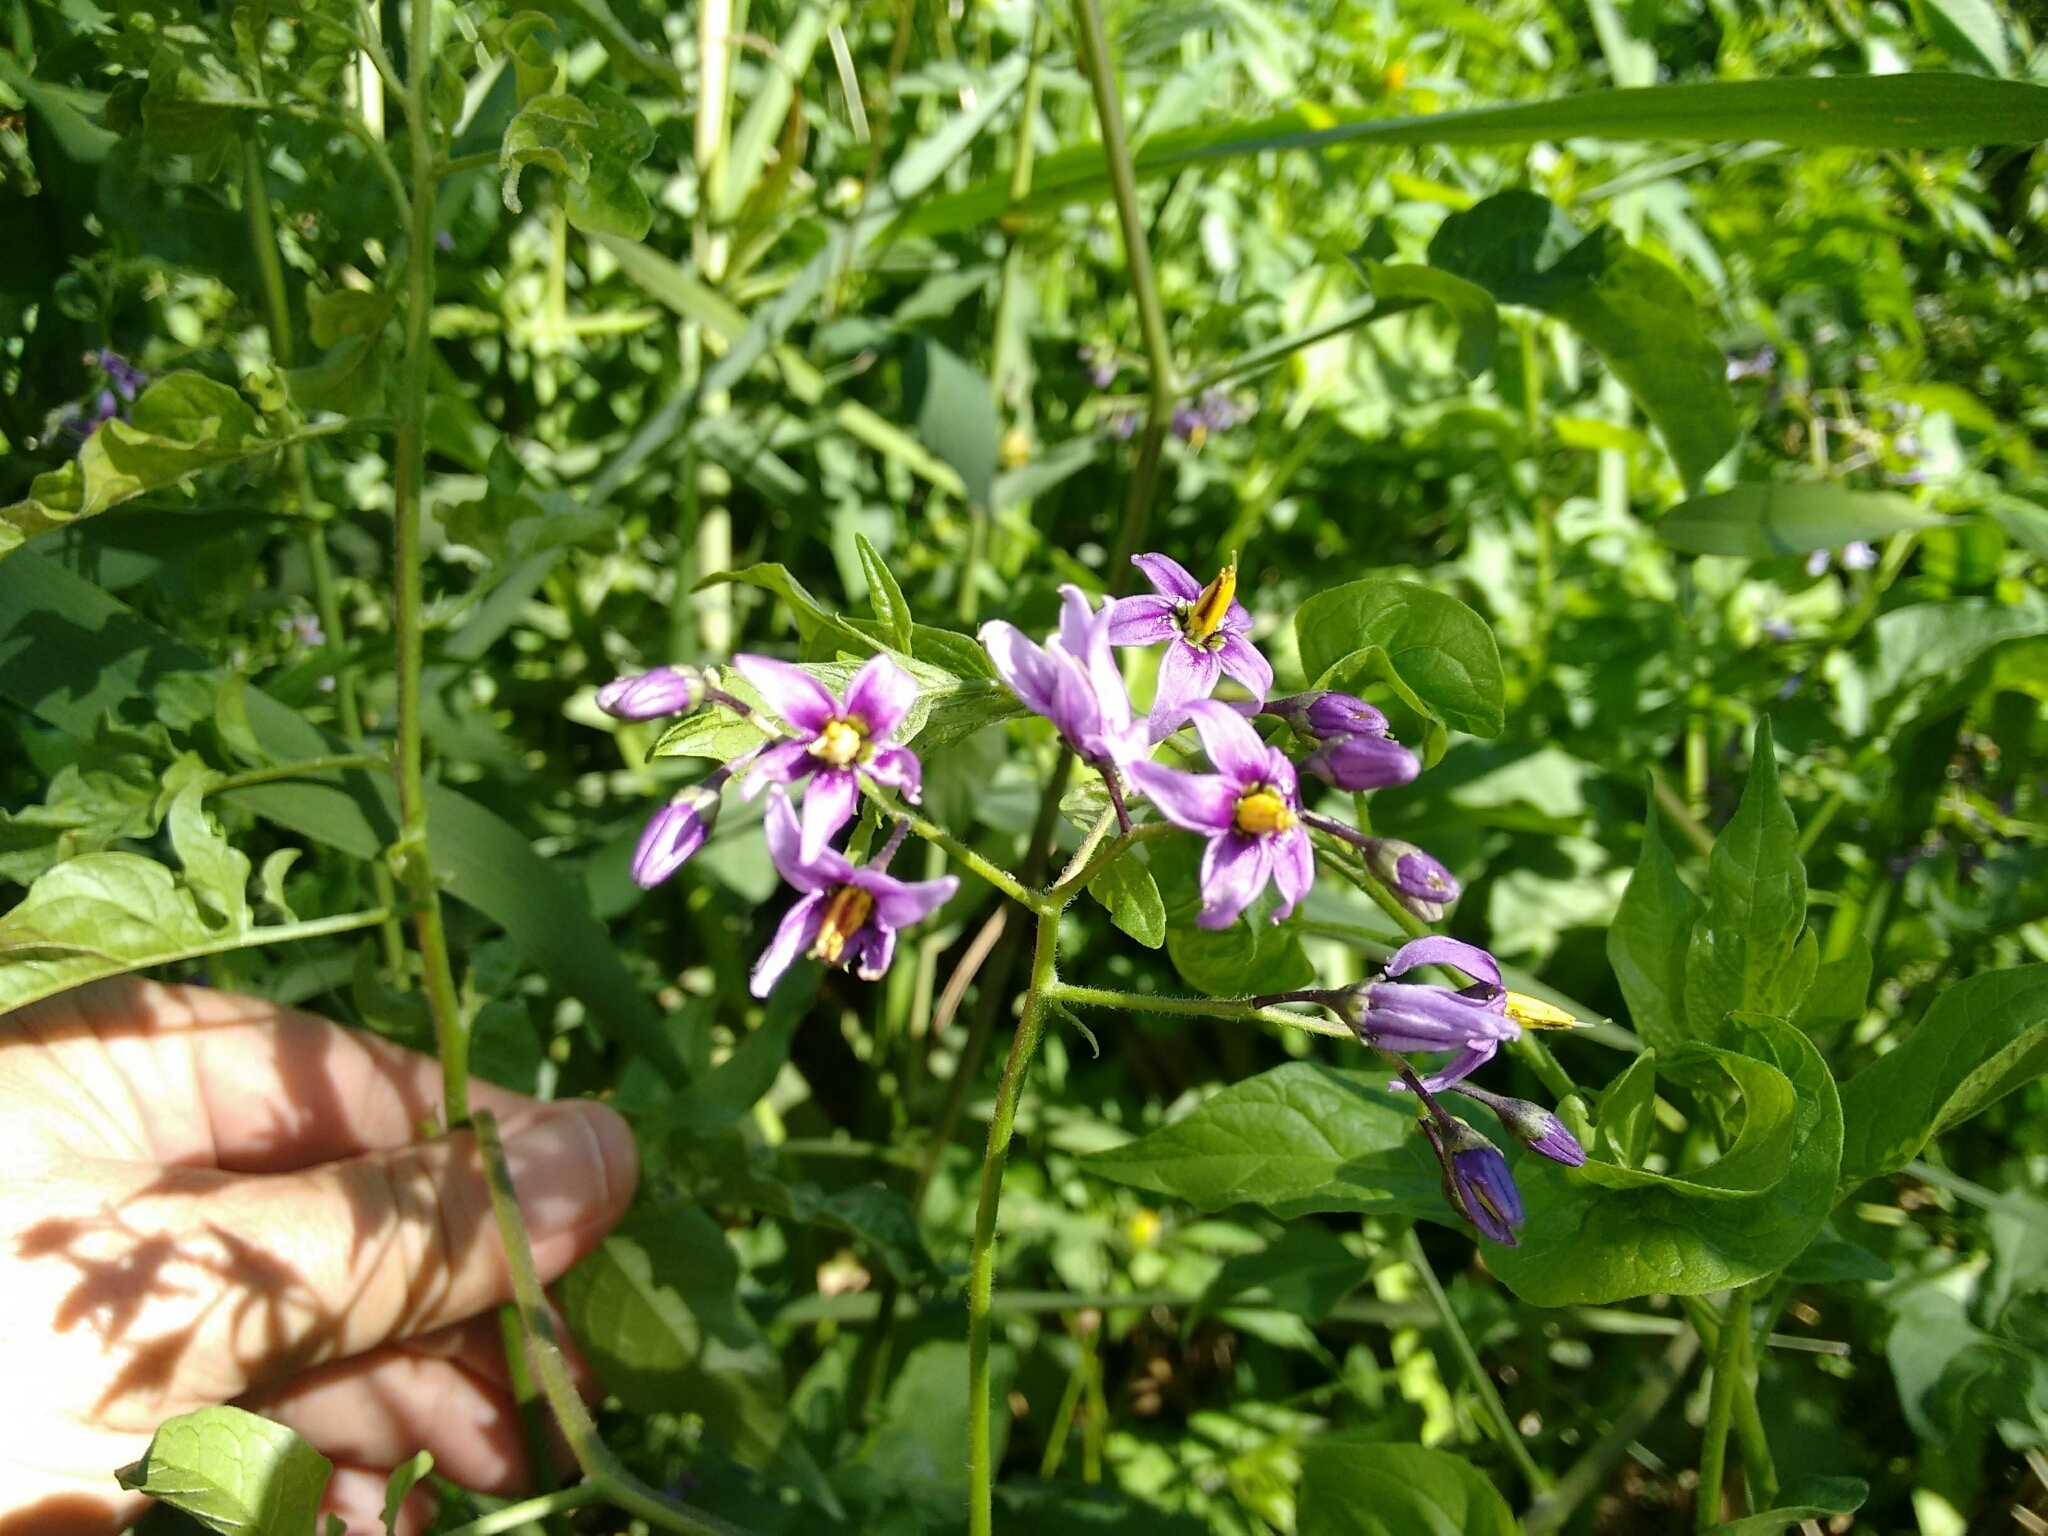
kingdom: Plantae
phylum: Tracheophyta
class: Magnoliopsida
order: Solanales
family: Solanaceae
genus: Solanum
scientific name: Solanum dulcamara
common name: Climbing nightshade
